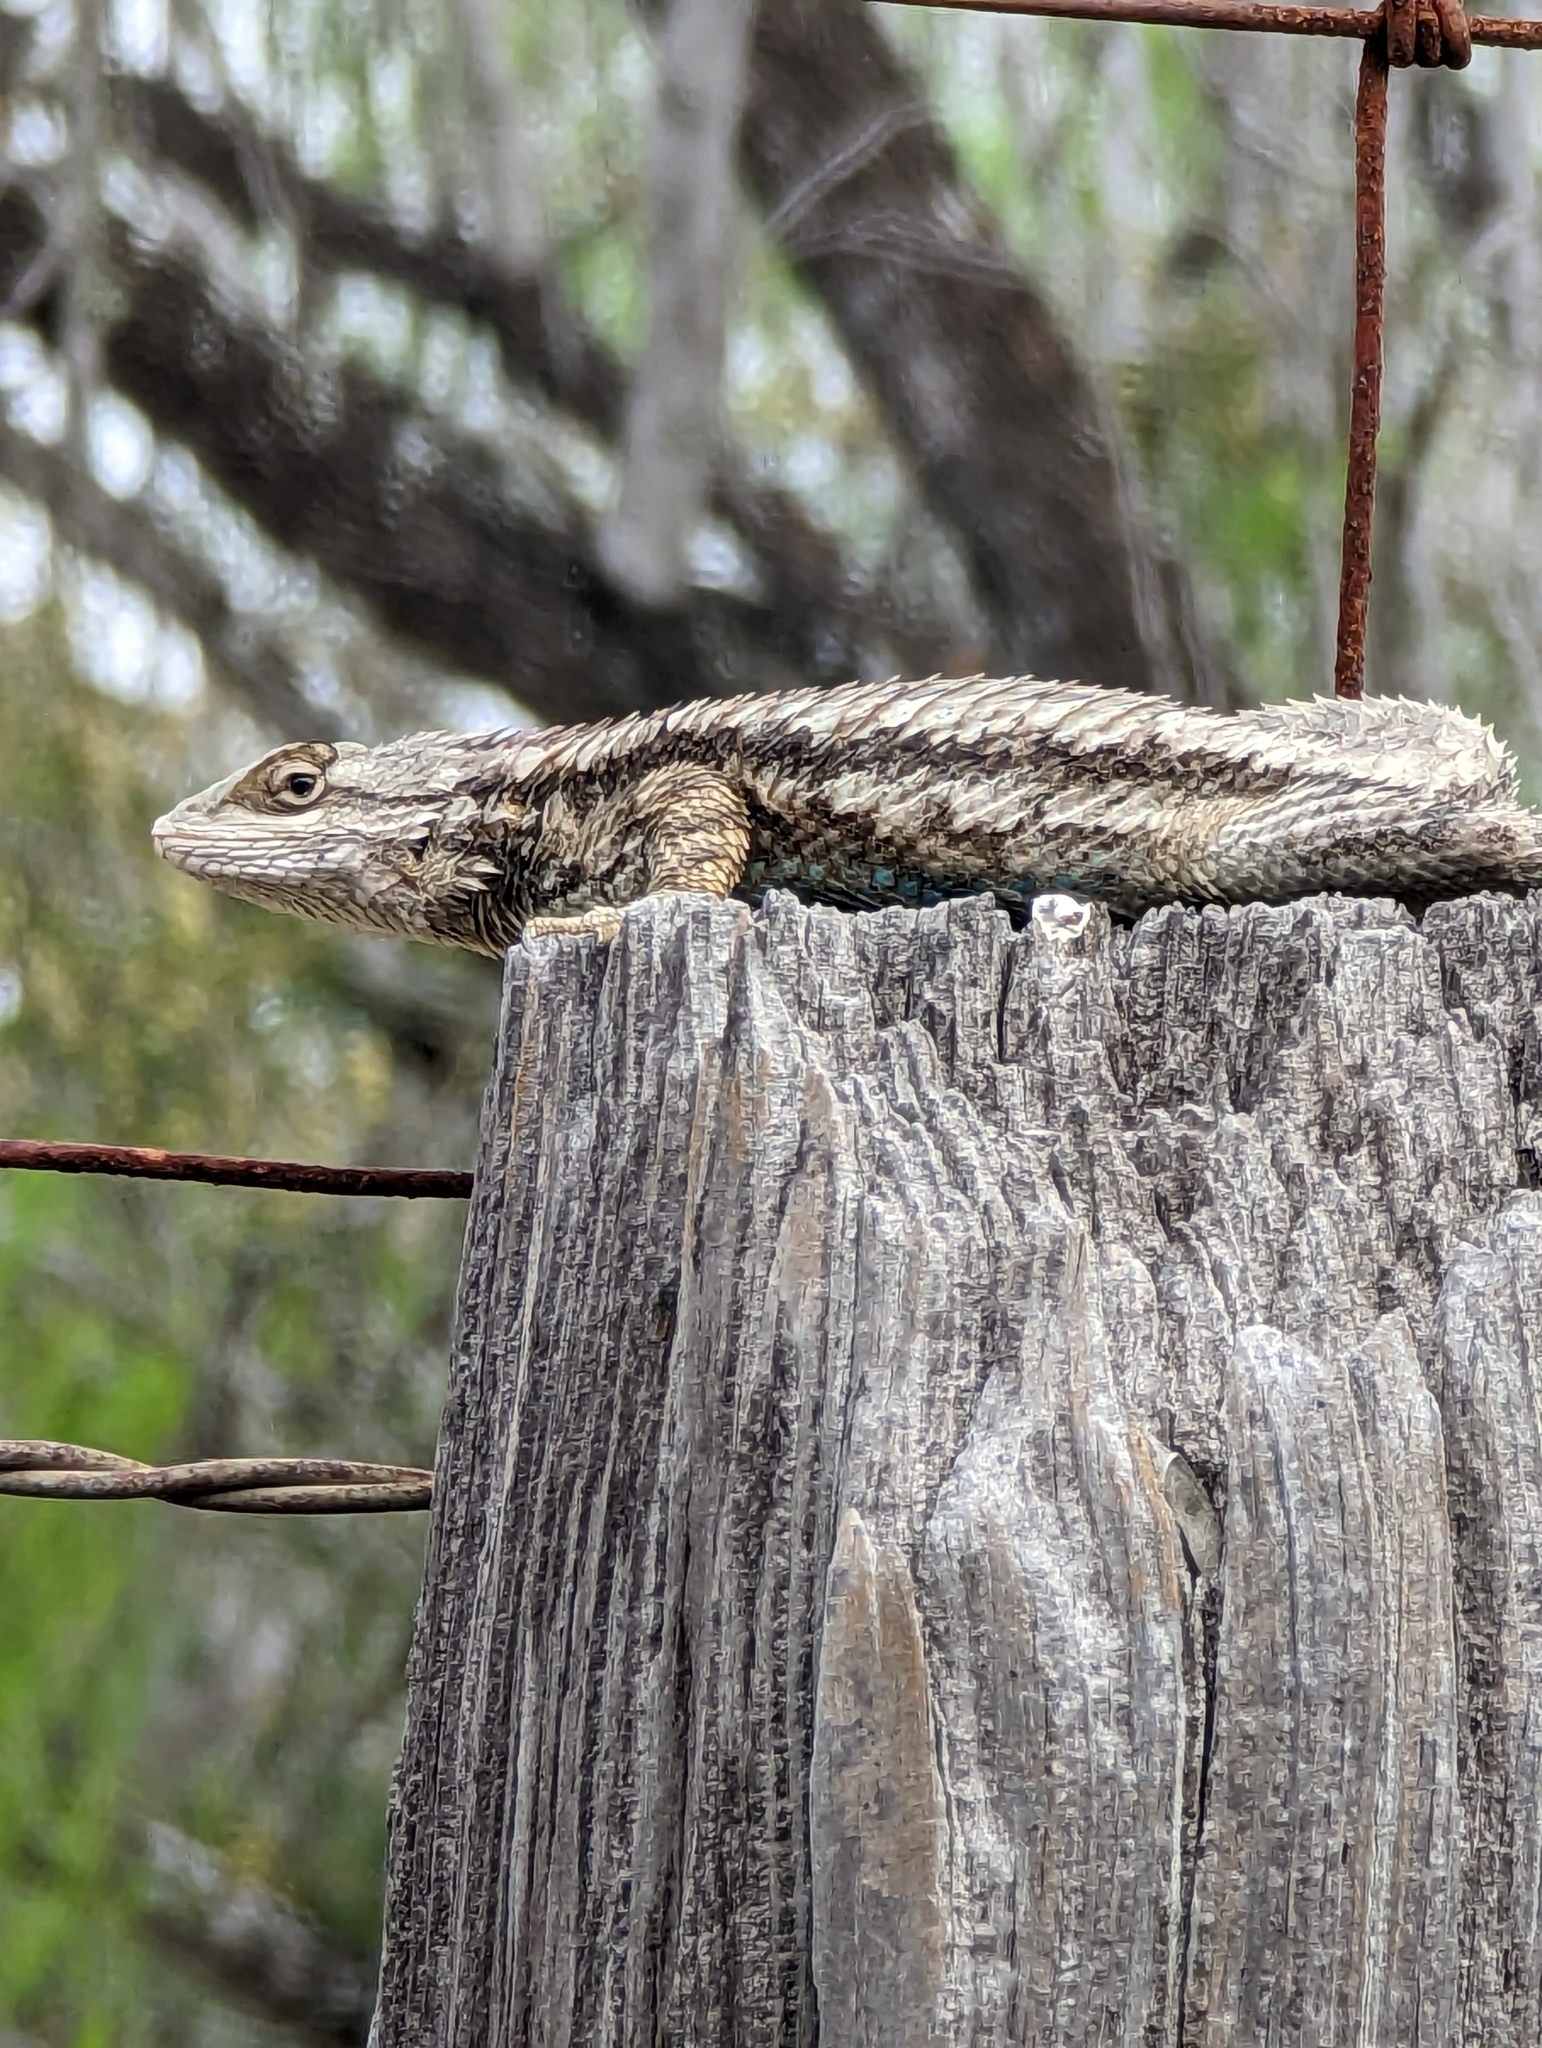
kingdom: Animalia
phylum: Chordata
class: Squamata
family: Phrynosomatidae
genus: Sceloporus
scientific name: Sceloporus olivaceus
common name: Texas spiny lizard
